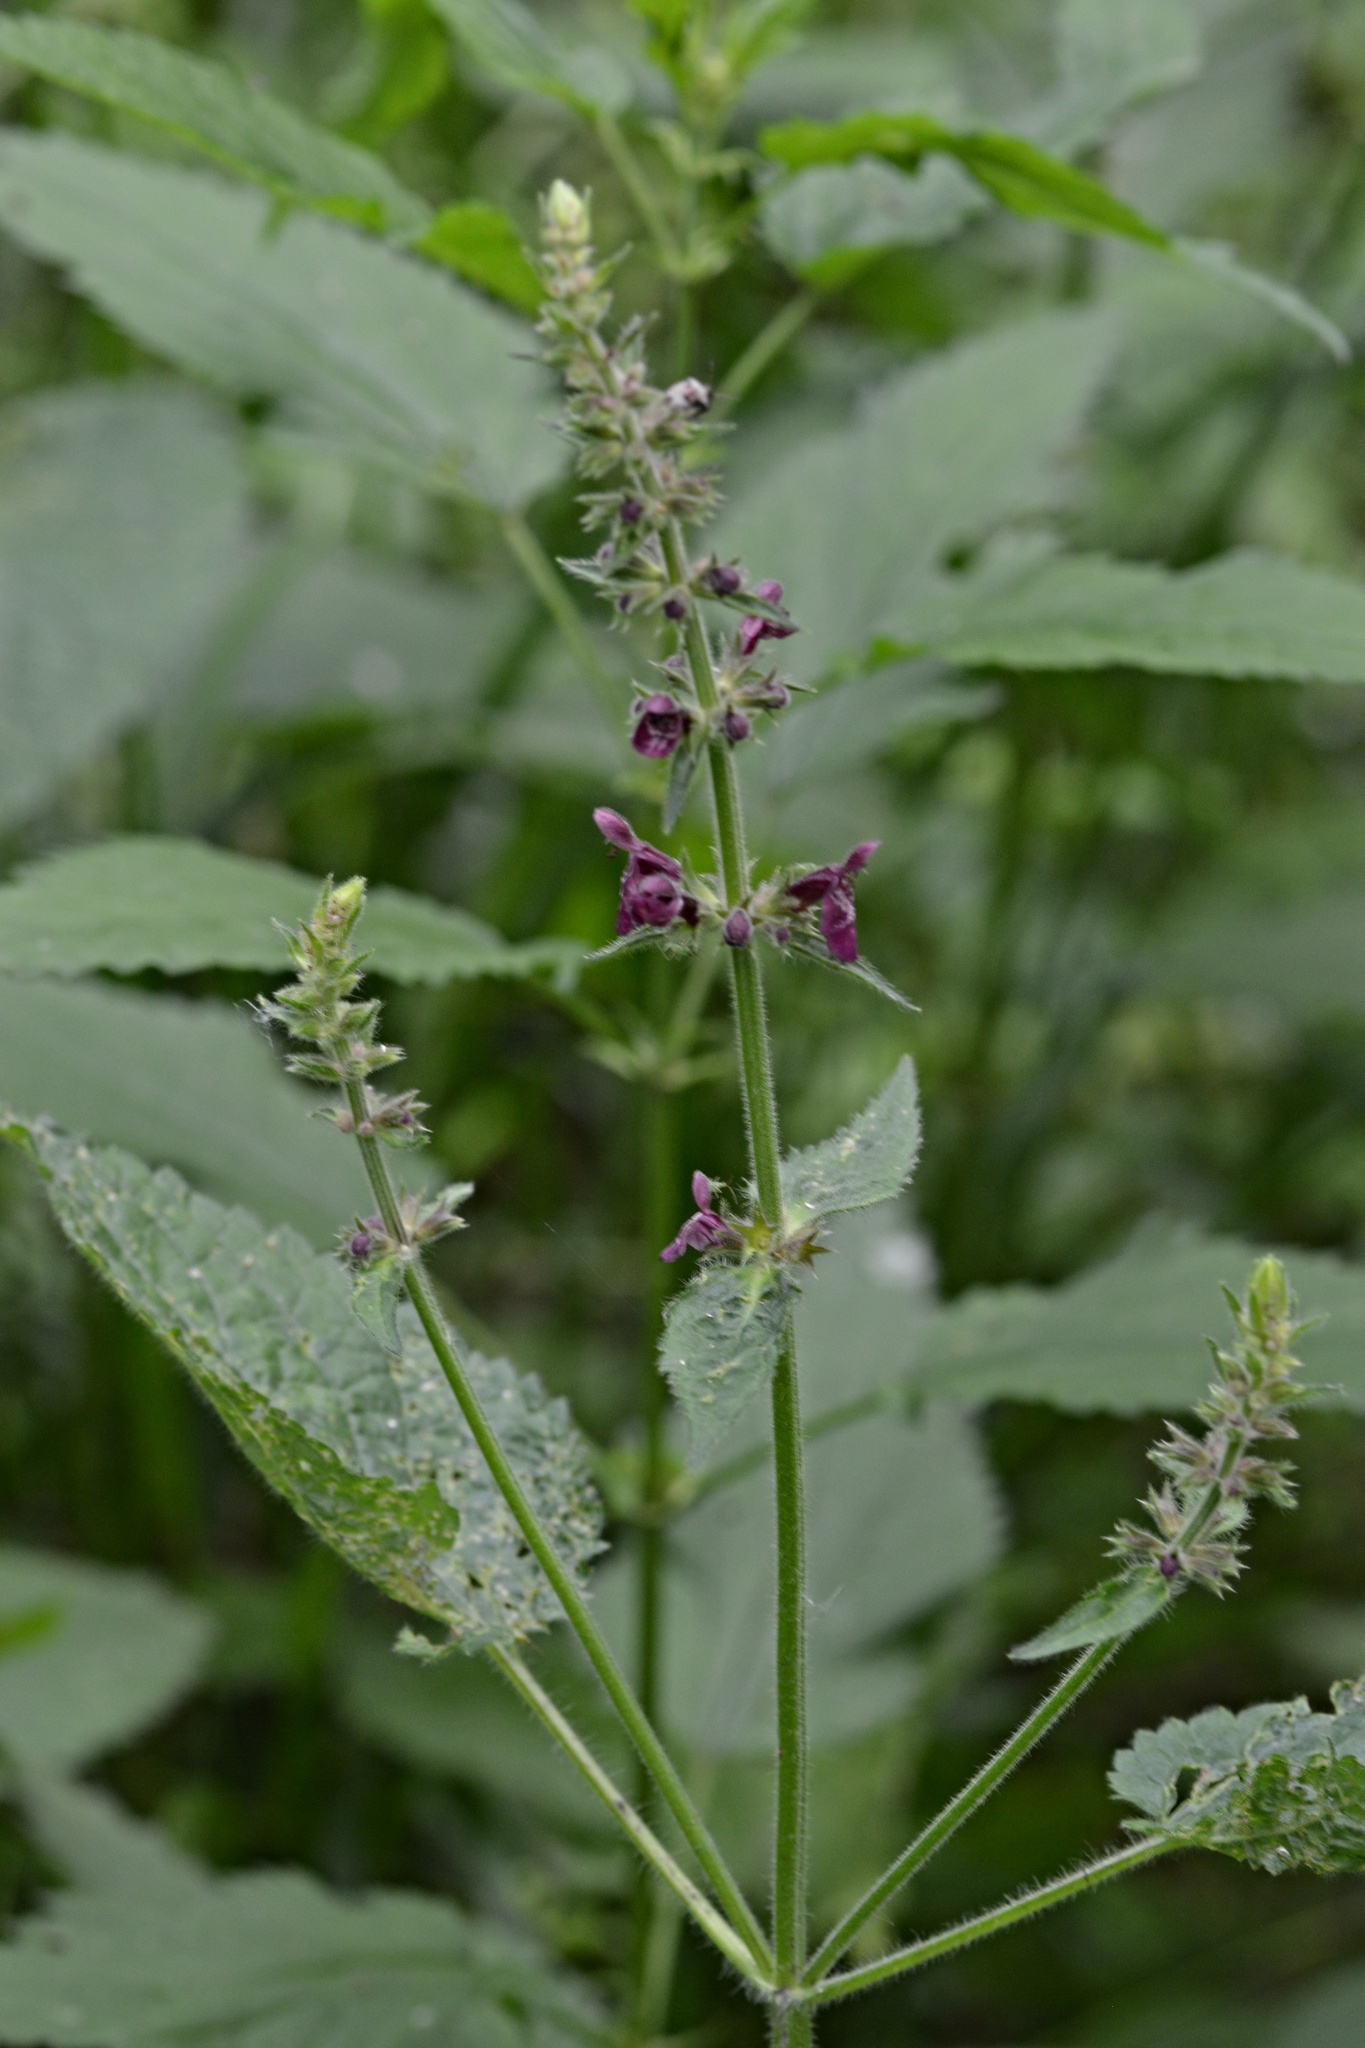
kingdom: Plantae
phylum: Tracheophyta
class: Magnoliopsida
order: Lamiales
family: Lamiaceae
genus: Stachys
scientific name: Stachys sylvatica
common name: Hedge woundwort
